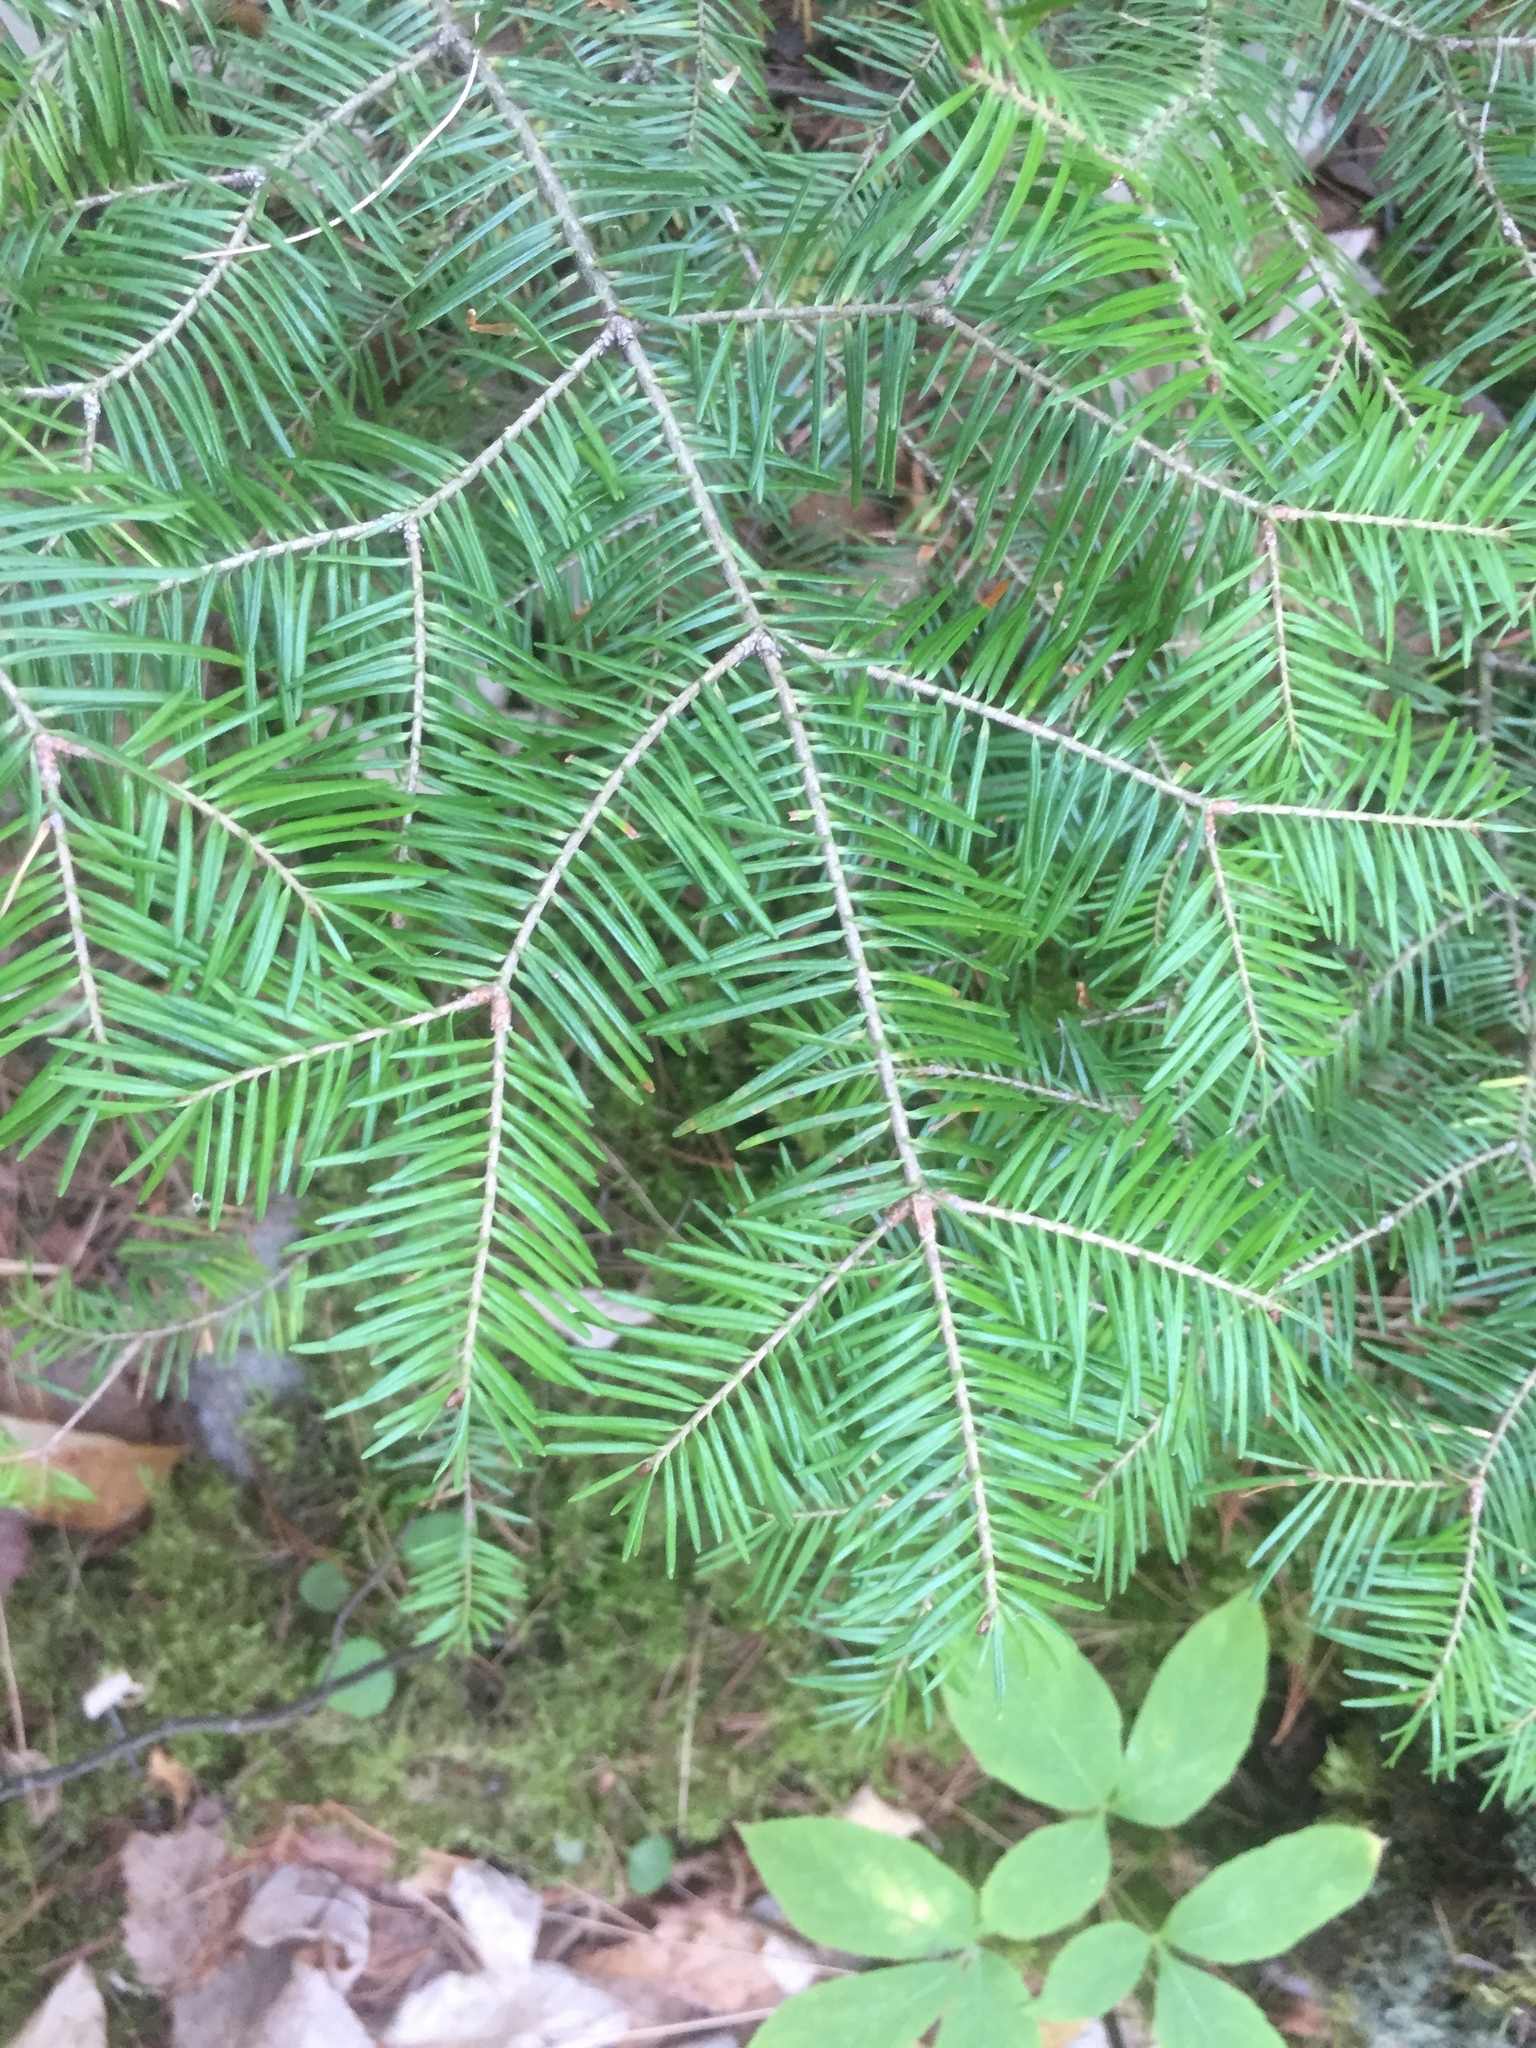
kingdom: Plantae
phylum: Tracheophyta
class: Pinopsida
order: Pinales
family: Pinaceae
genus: Abies
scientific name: Abies balsamea
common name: Balsam fir
